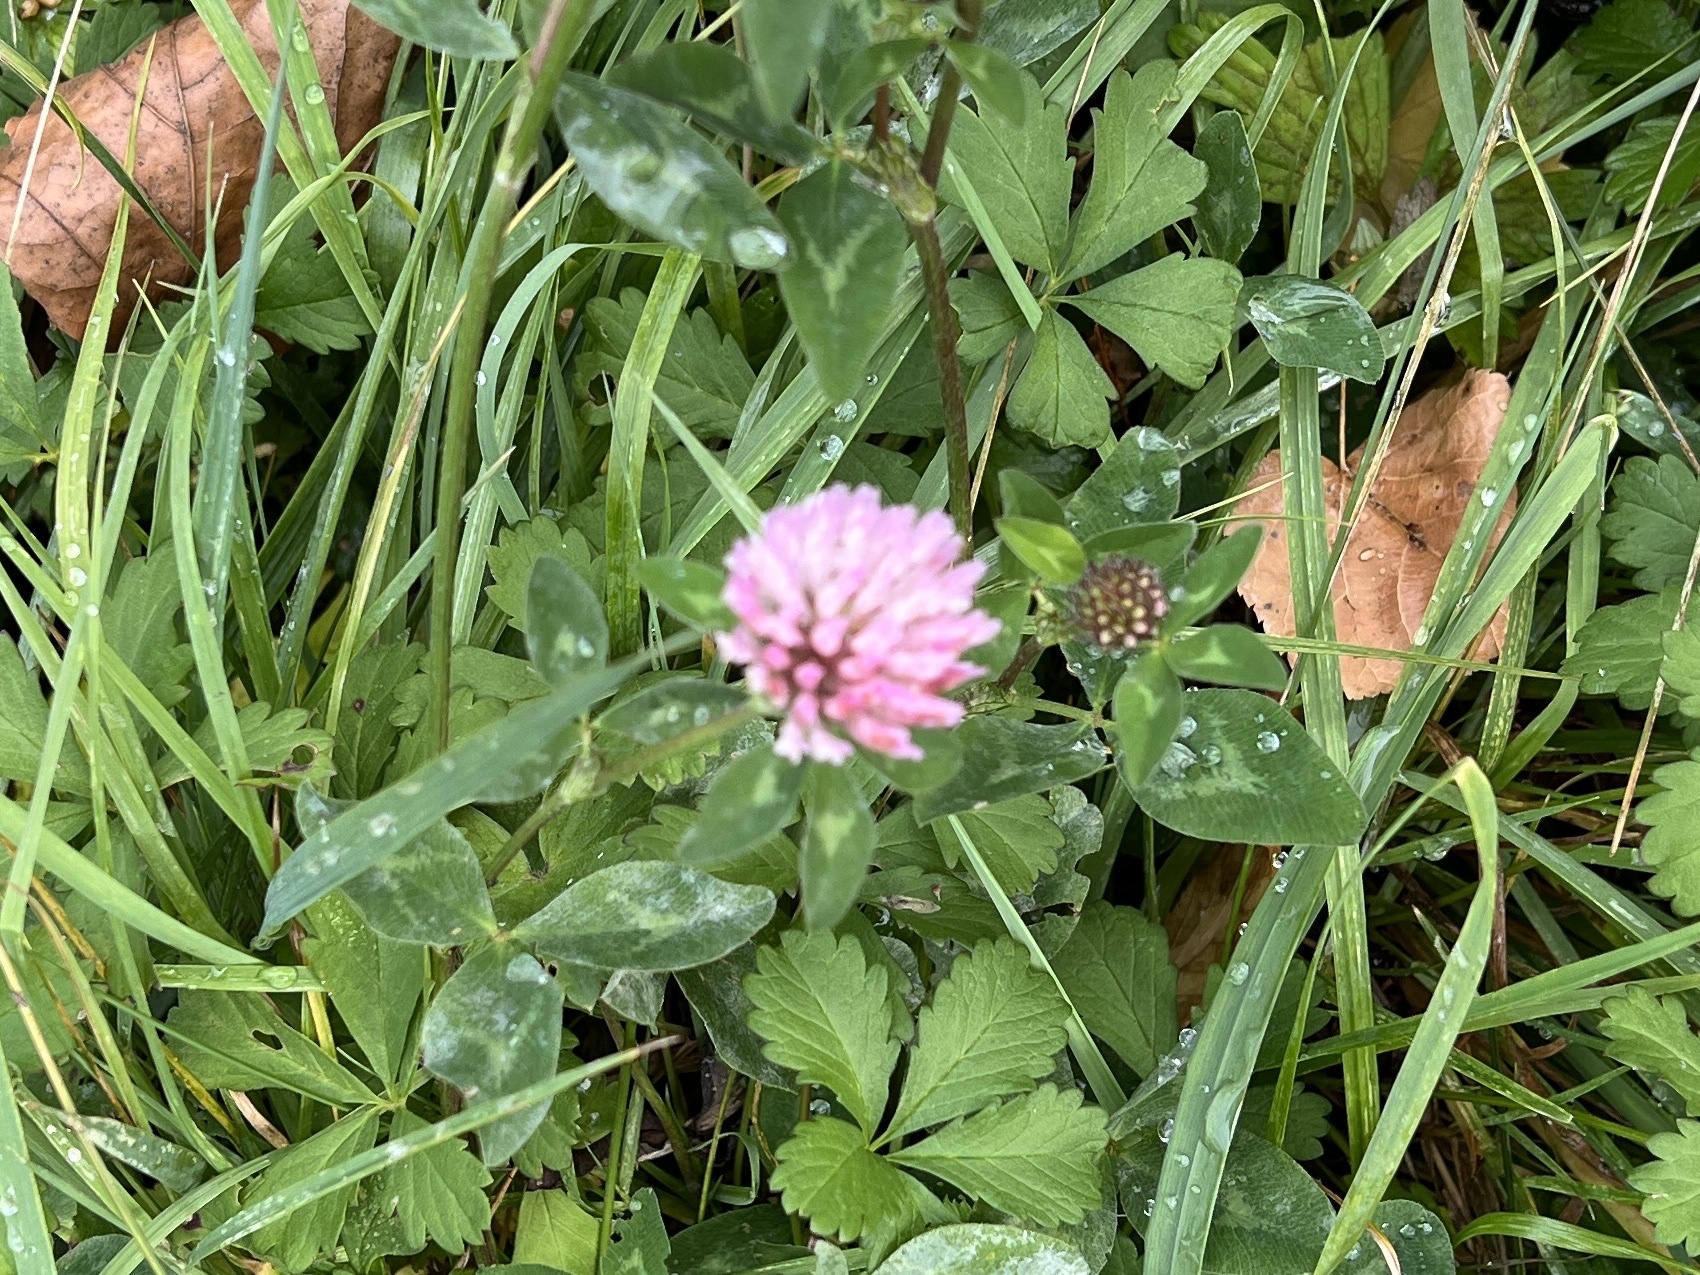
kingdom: Plantae
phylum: Tracheophyta
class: Magnoliopsida
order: Fabales
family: Fabaceae
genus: Trifolium
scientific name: Trifolium pratense
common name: Red clover
